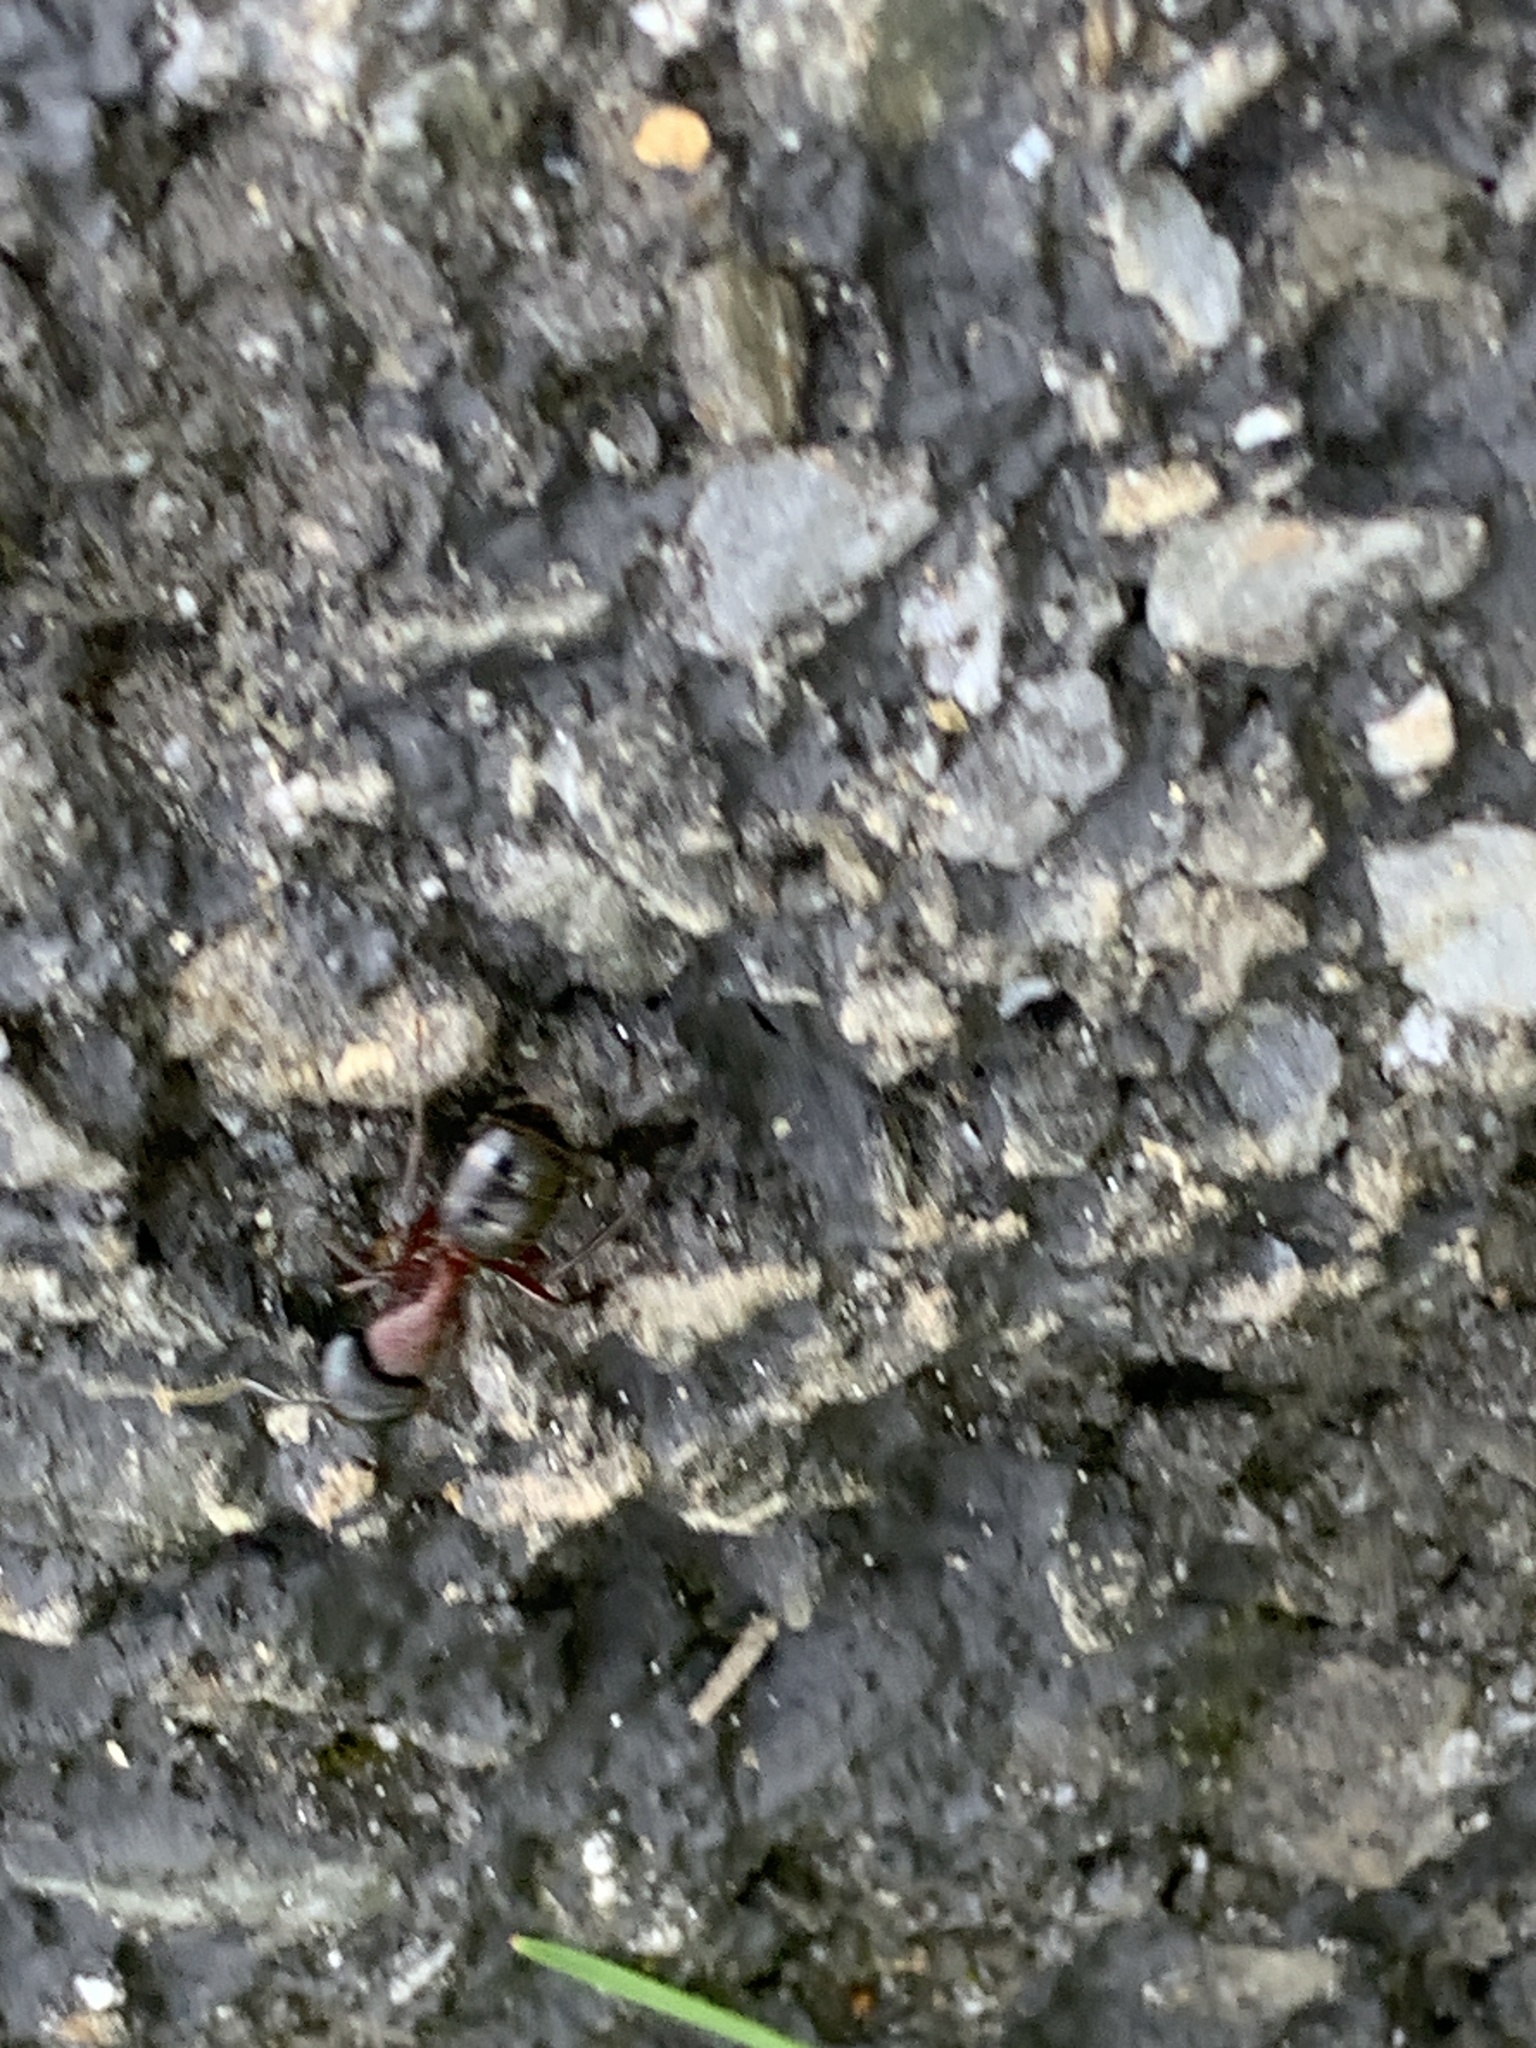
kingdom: Animalia
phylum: Arthropoda
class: Insecta
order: Hymenoptera
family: Formicidae
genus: Camponotus
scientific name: Camponotus novaeboracensis
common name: New york carpenter ant
